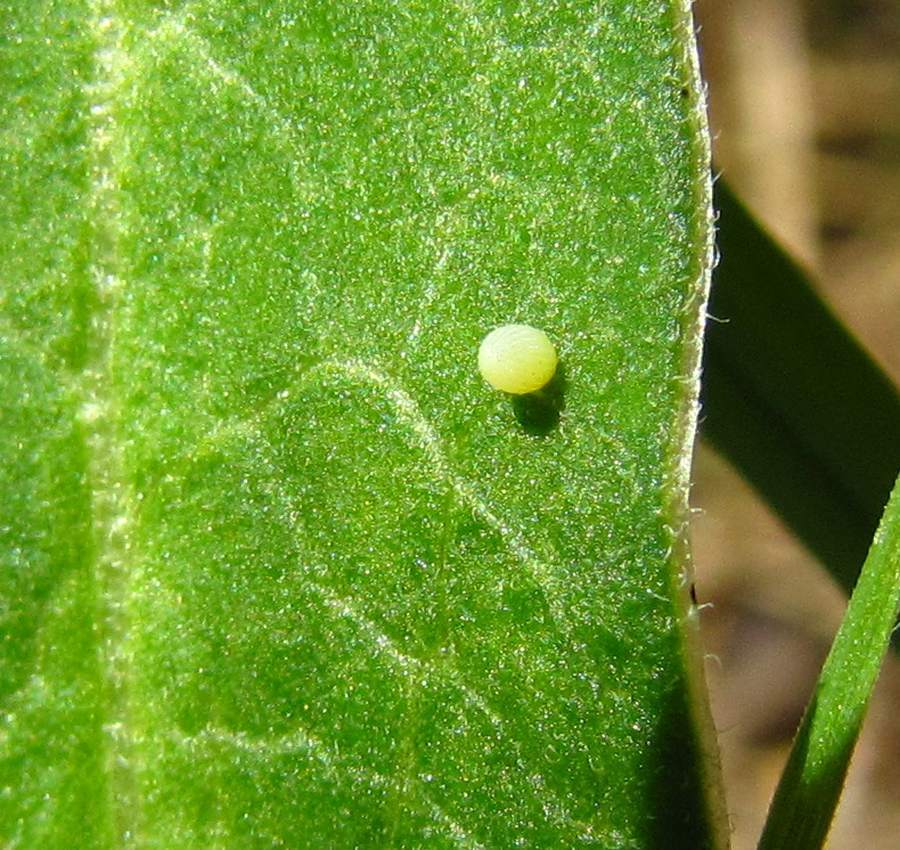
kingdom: Animalia
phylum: Arthropoda
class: Insecta
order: Lepidoptera
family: Nymphalidae
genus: Danaus
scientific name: Danaus plexippus
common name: Monarch
